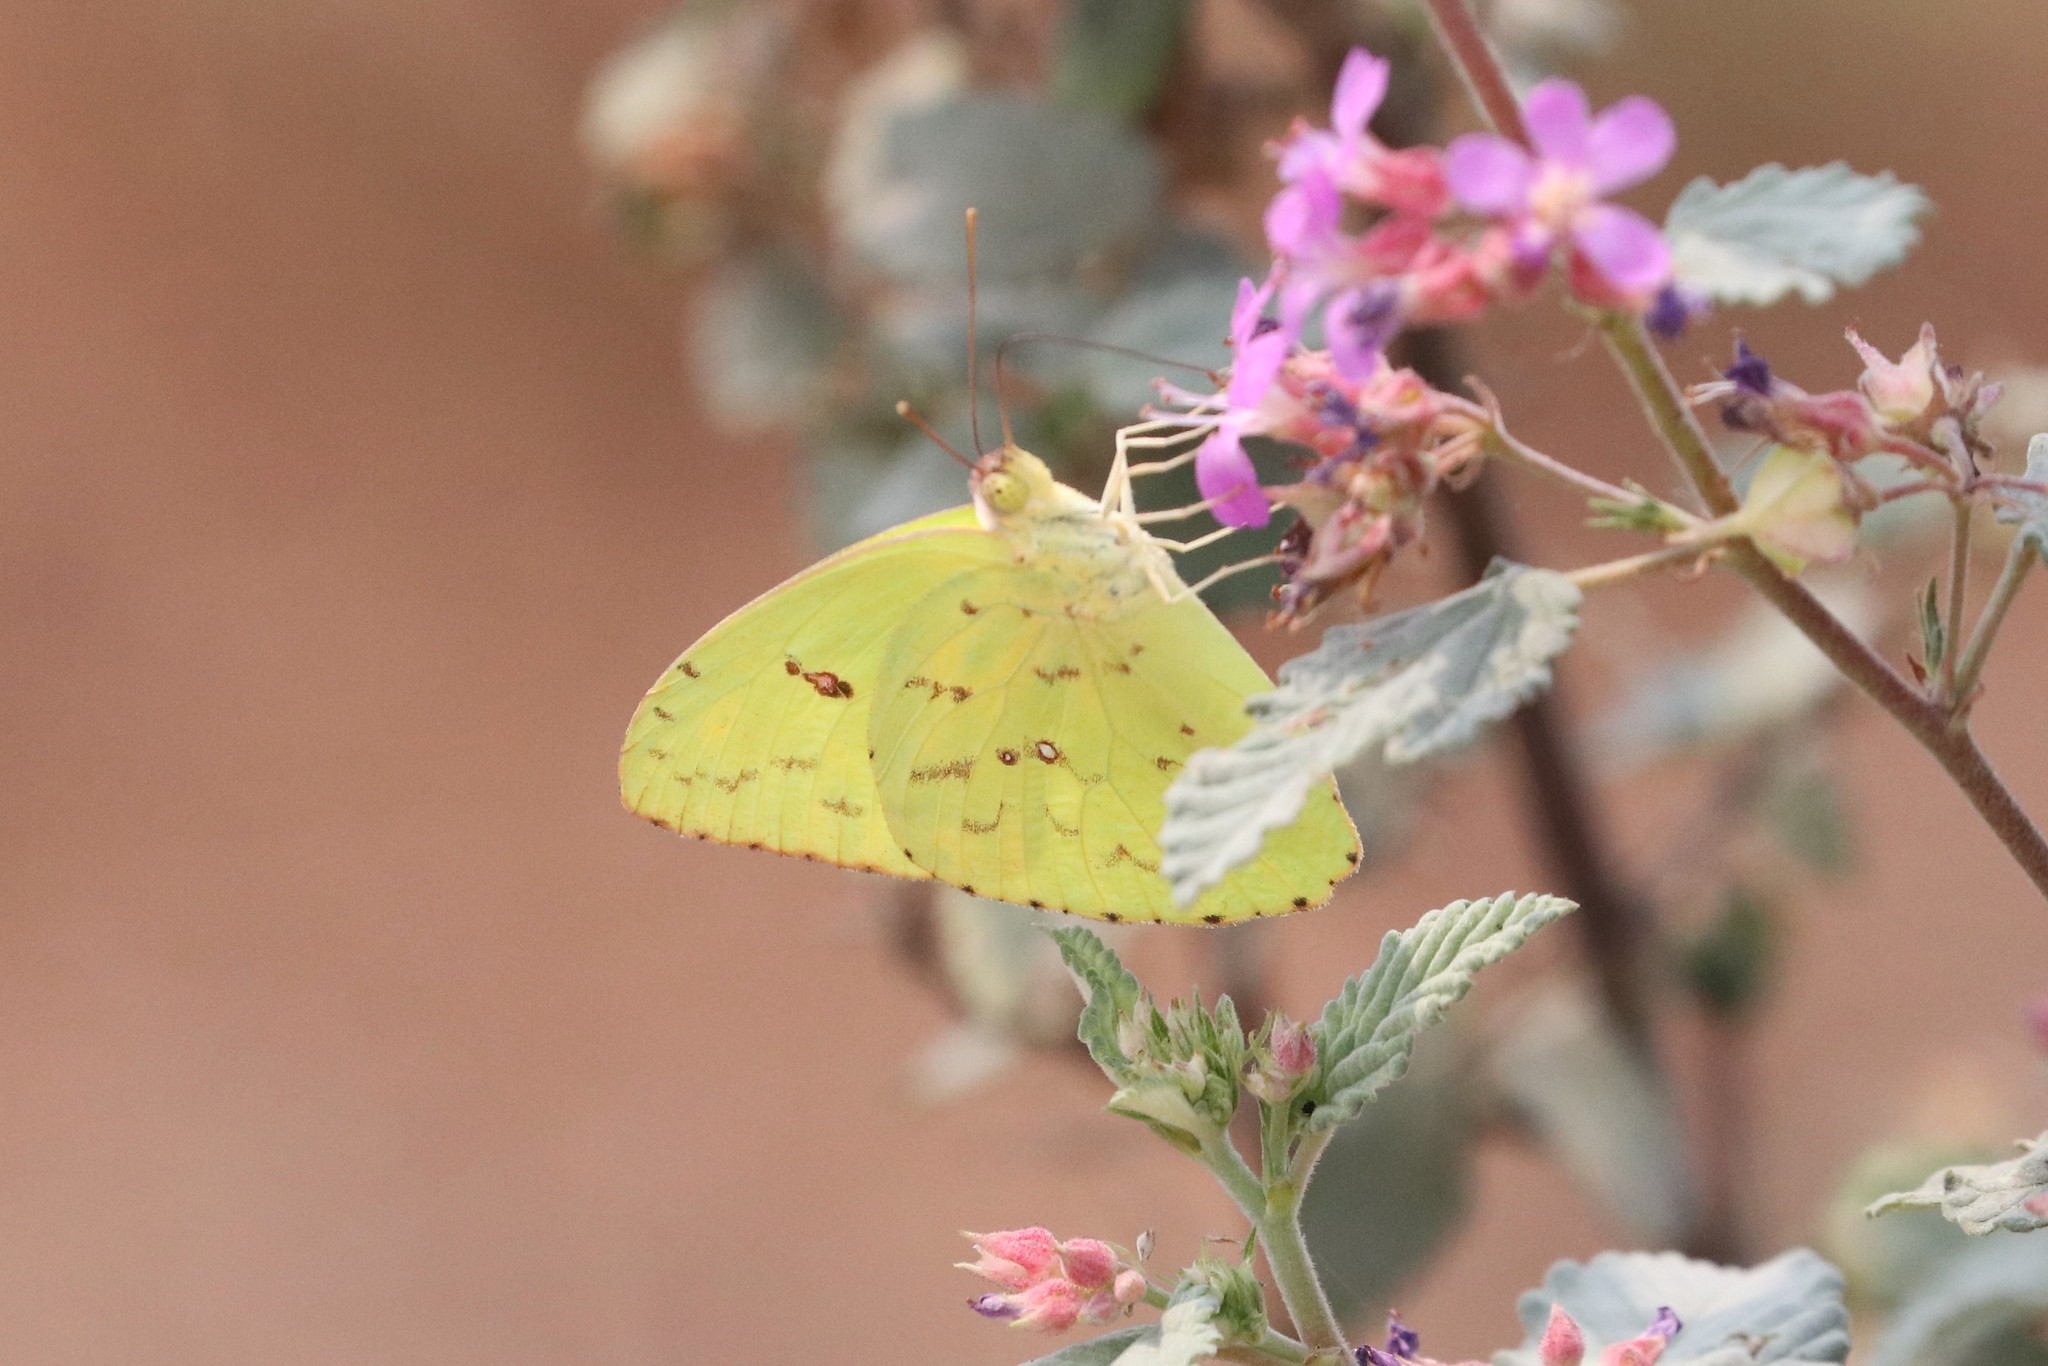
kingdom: Animalia
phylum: Arthropoda
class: Insecta
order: Lepidoptera
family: Pieridae
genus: Phoebis
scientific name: Phoebis sennae
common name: Cloudless sulphur
